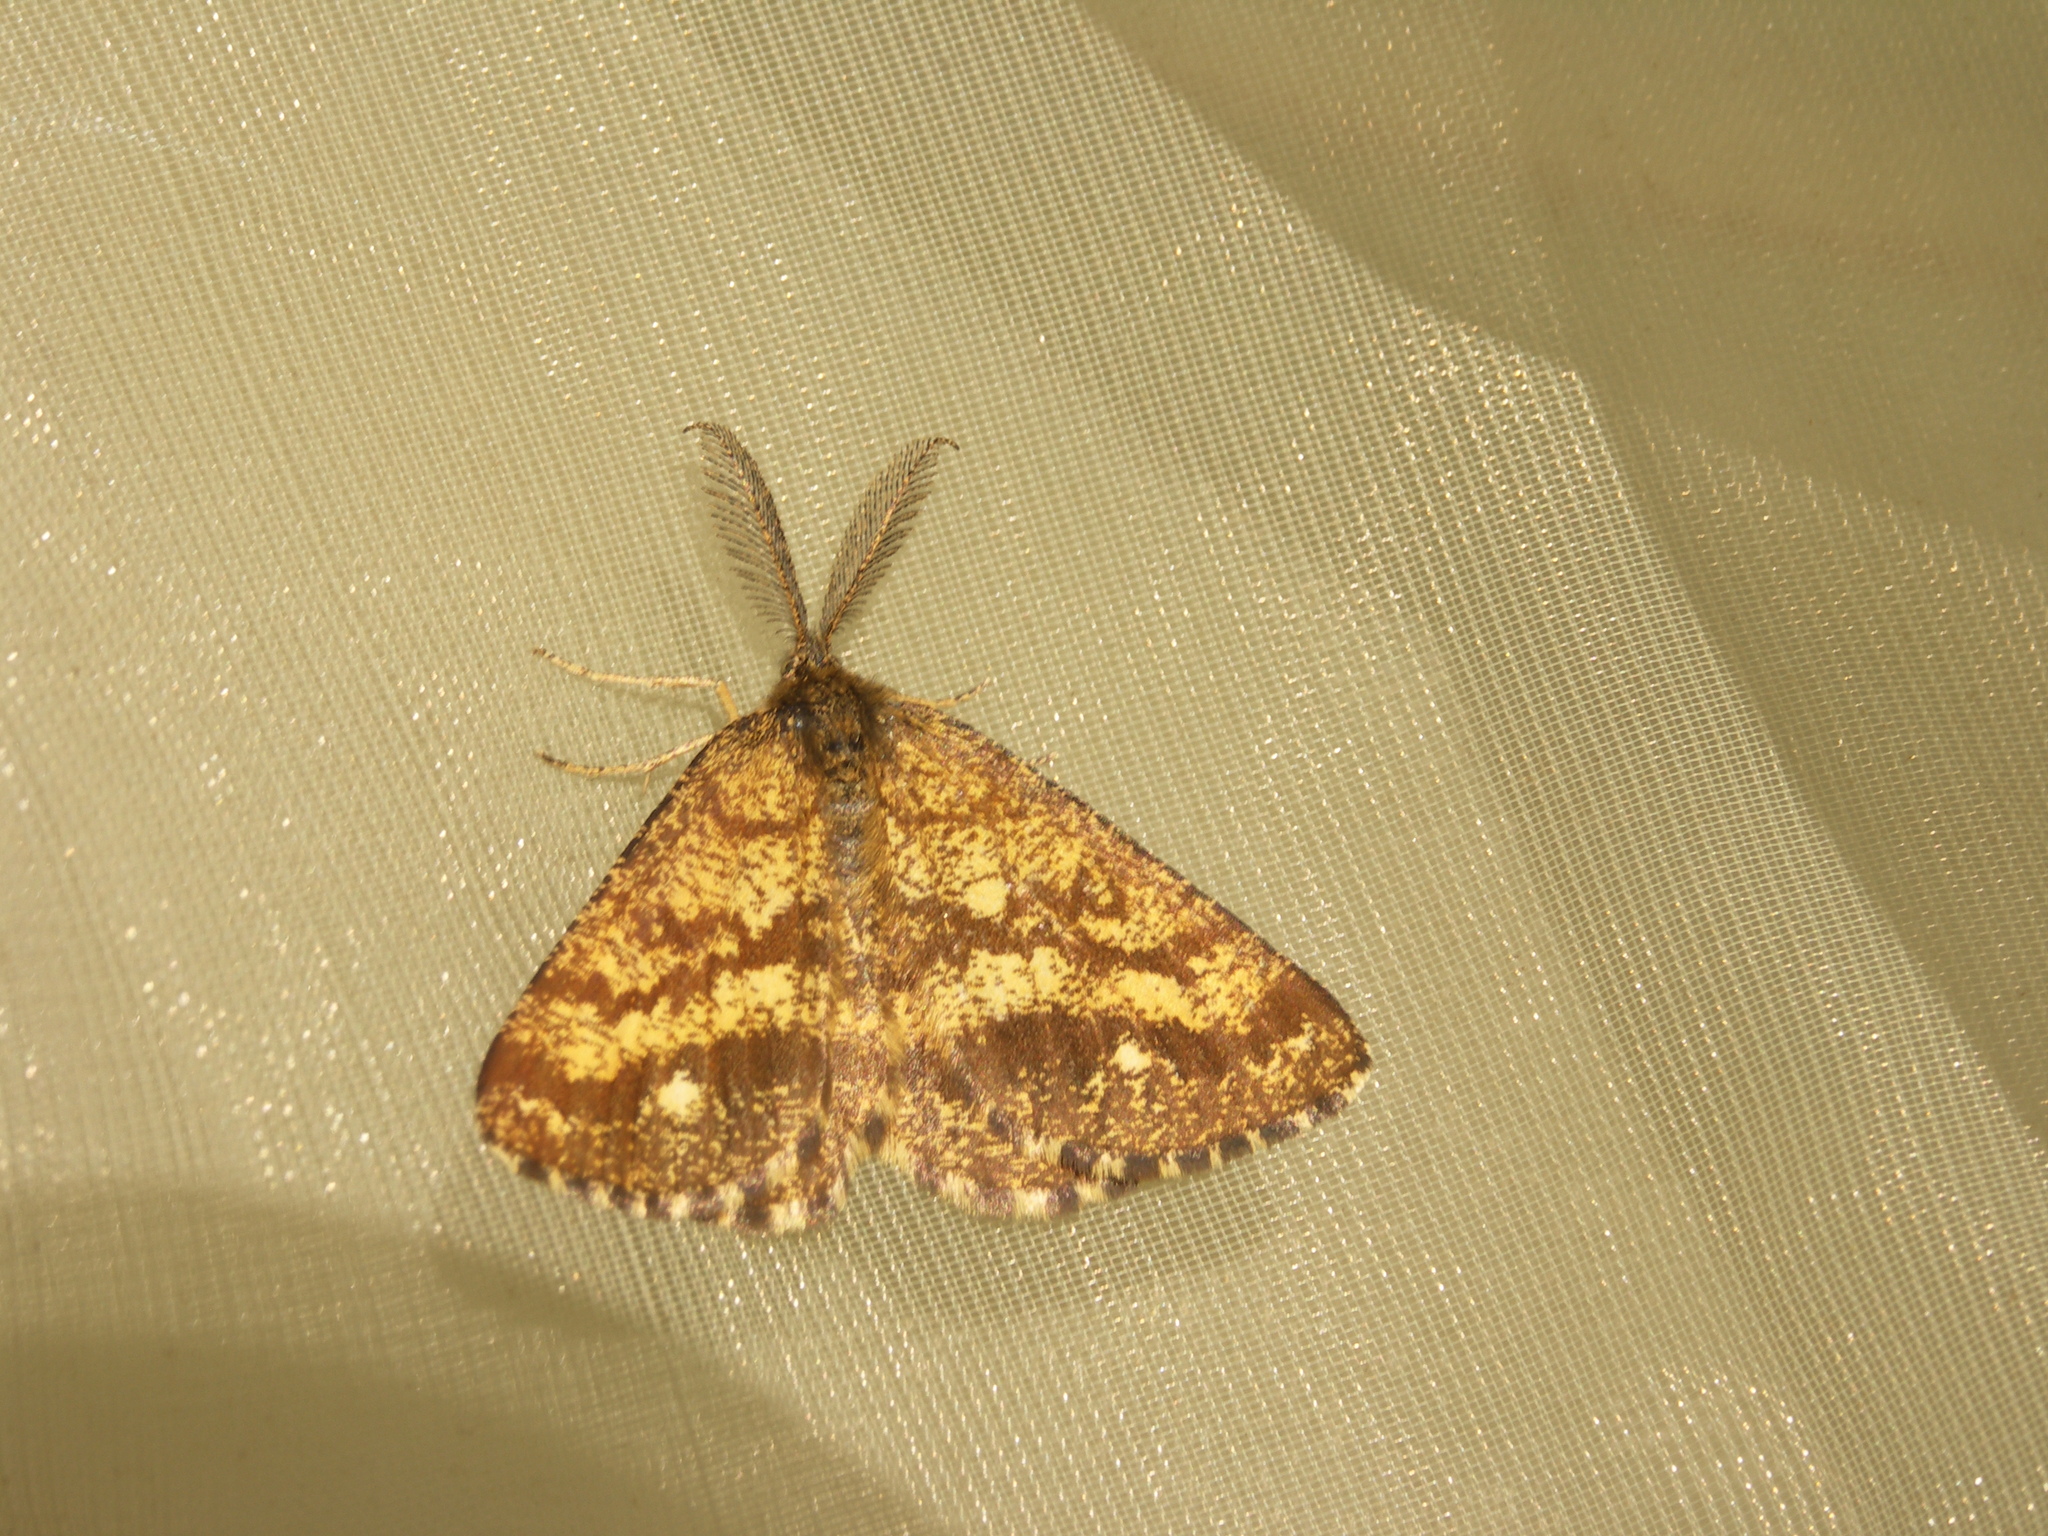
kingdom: Animalia
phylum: Arthropoda
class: Insecta
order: Lepidoptera
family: Geometridae
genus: Ematurga
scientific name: Ematurga atomaria
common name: Common heath
